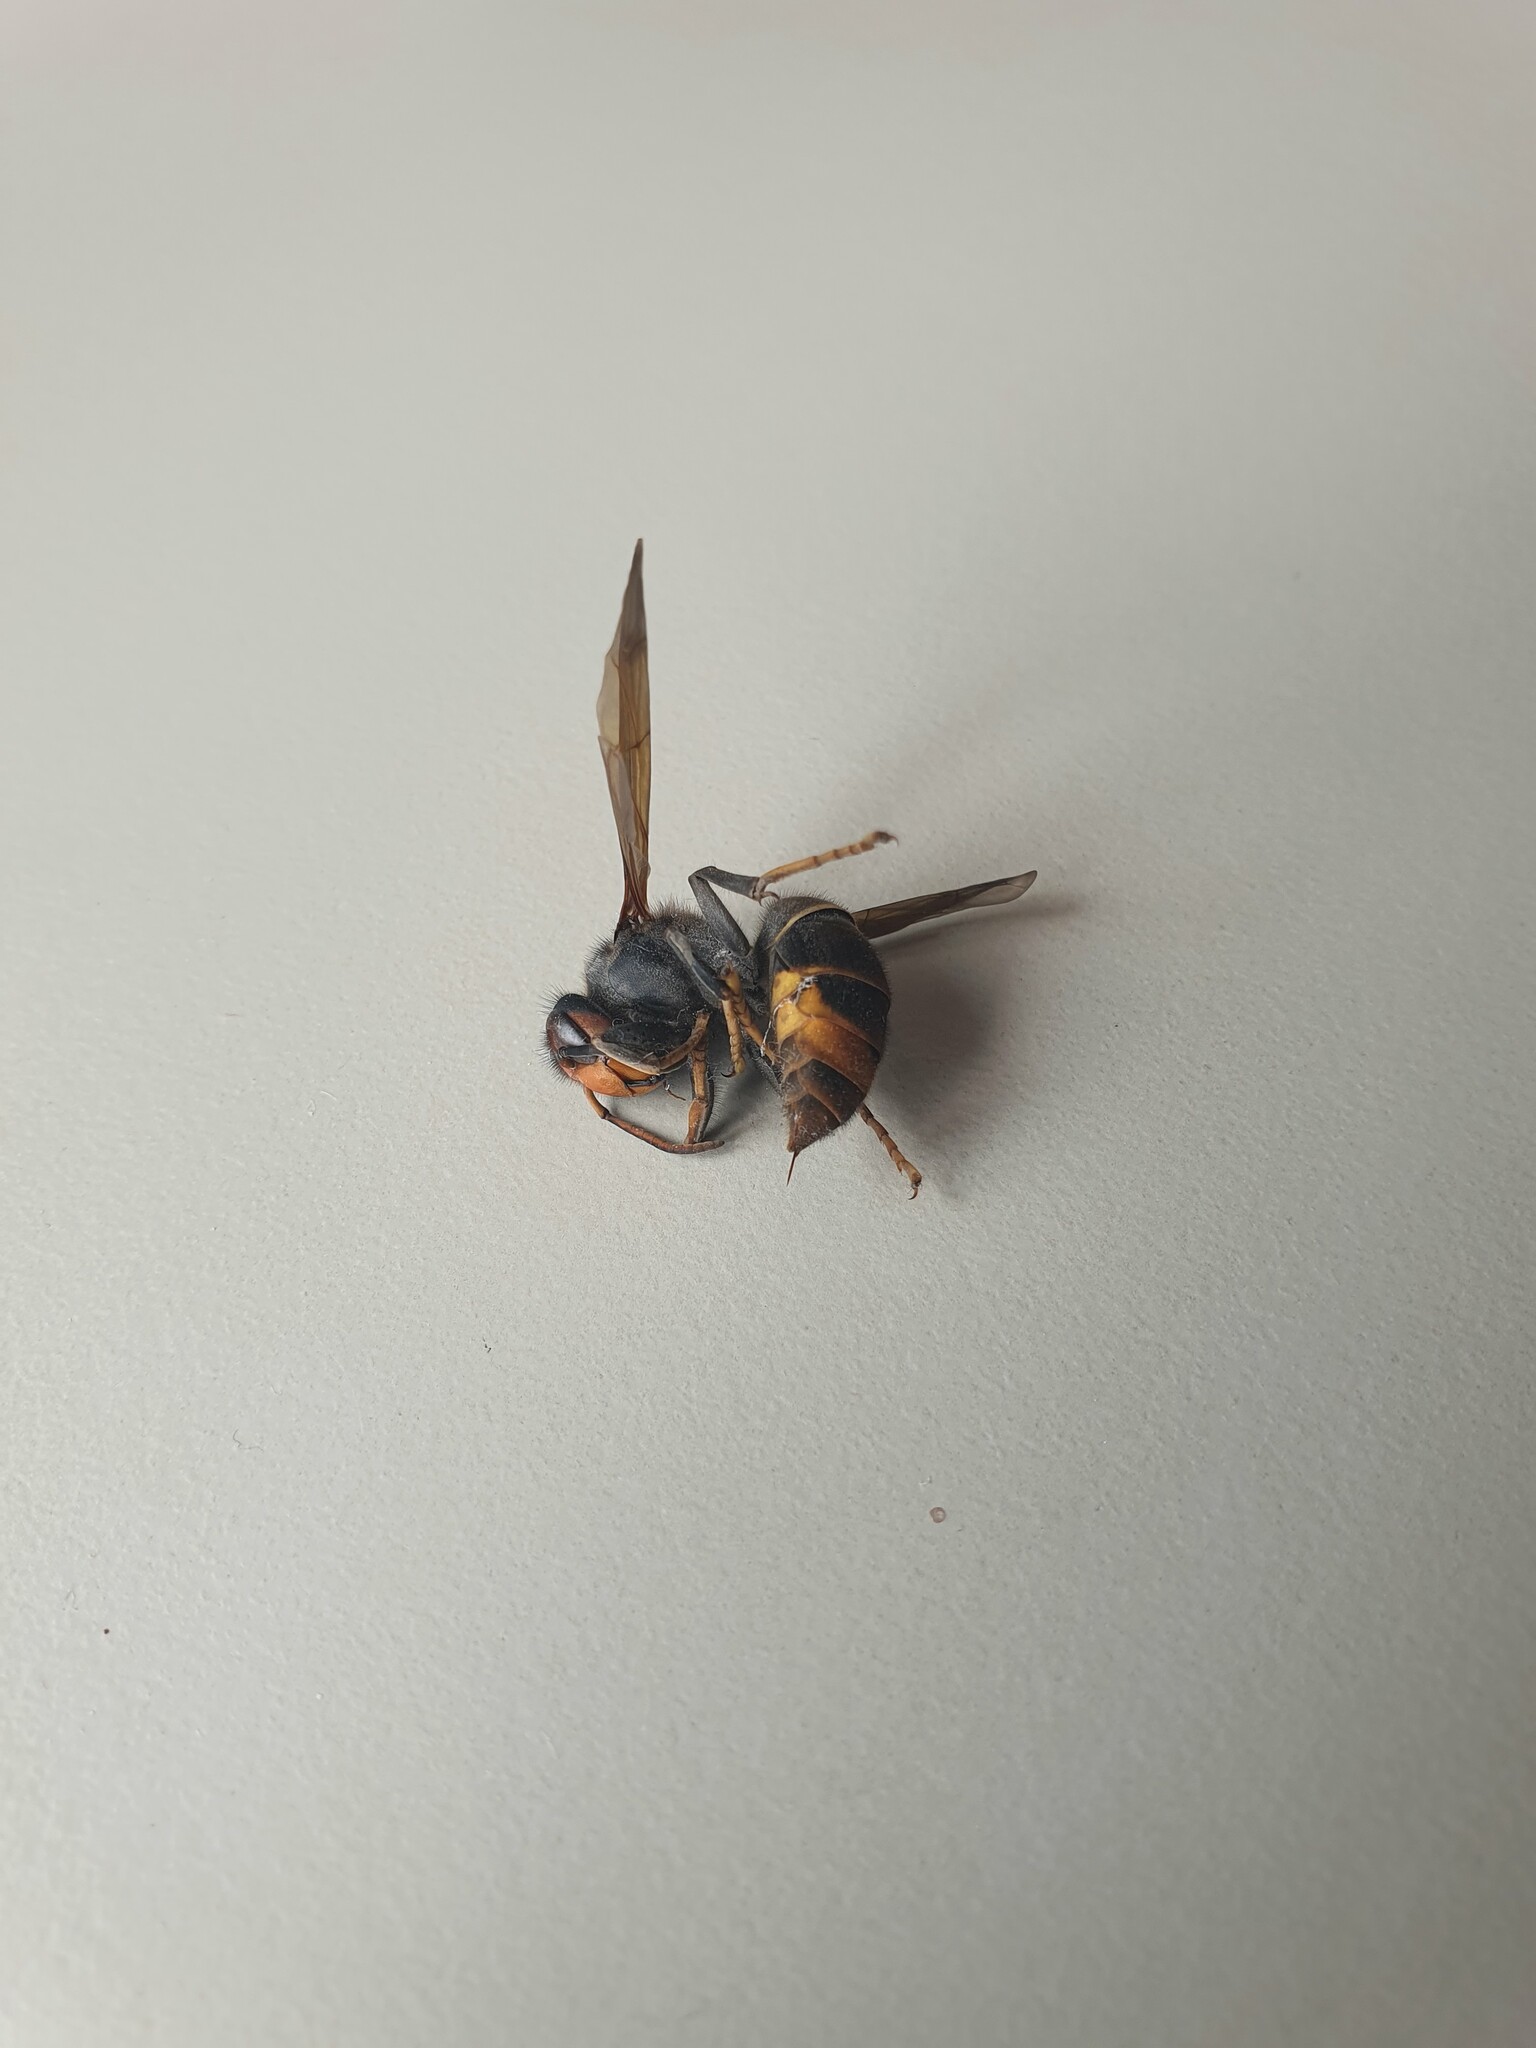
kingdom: Animalia
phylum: Arthropoda
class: Insecta
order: Hymenoptera
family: Vespidae
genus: Vespa
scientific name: Vespa velutina
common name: Asian hornet
